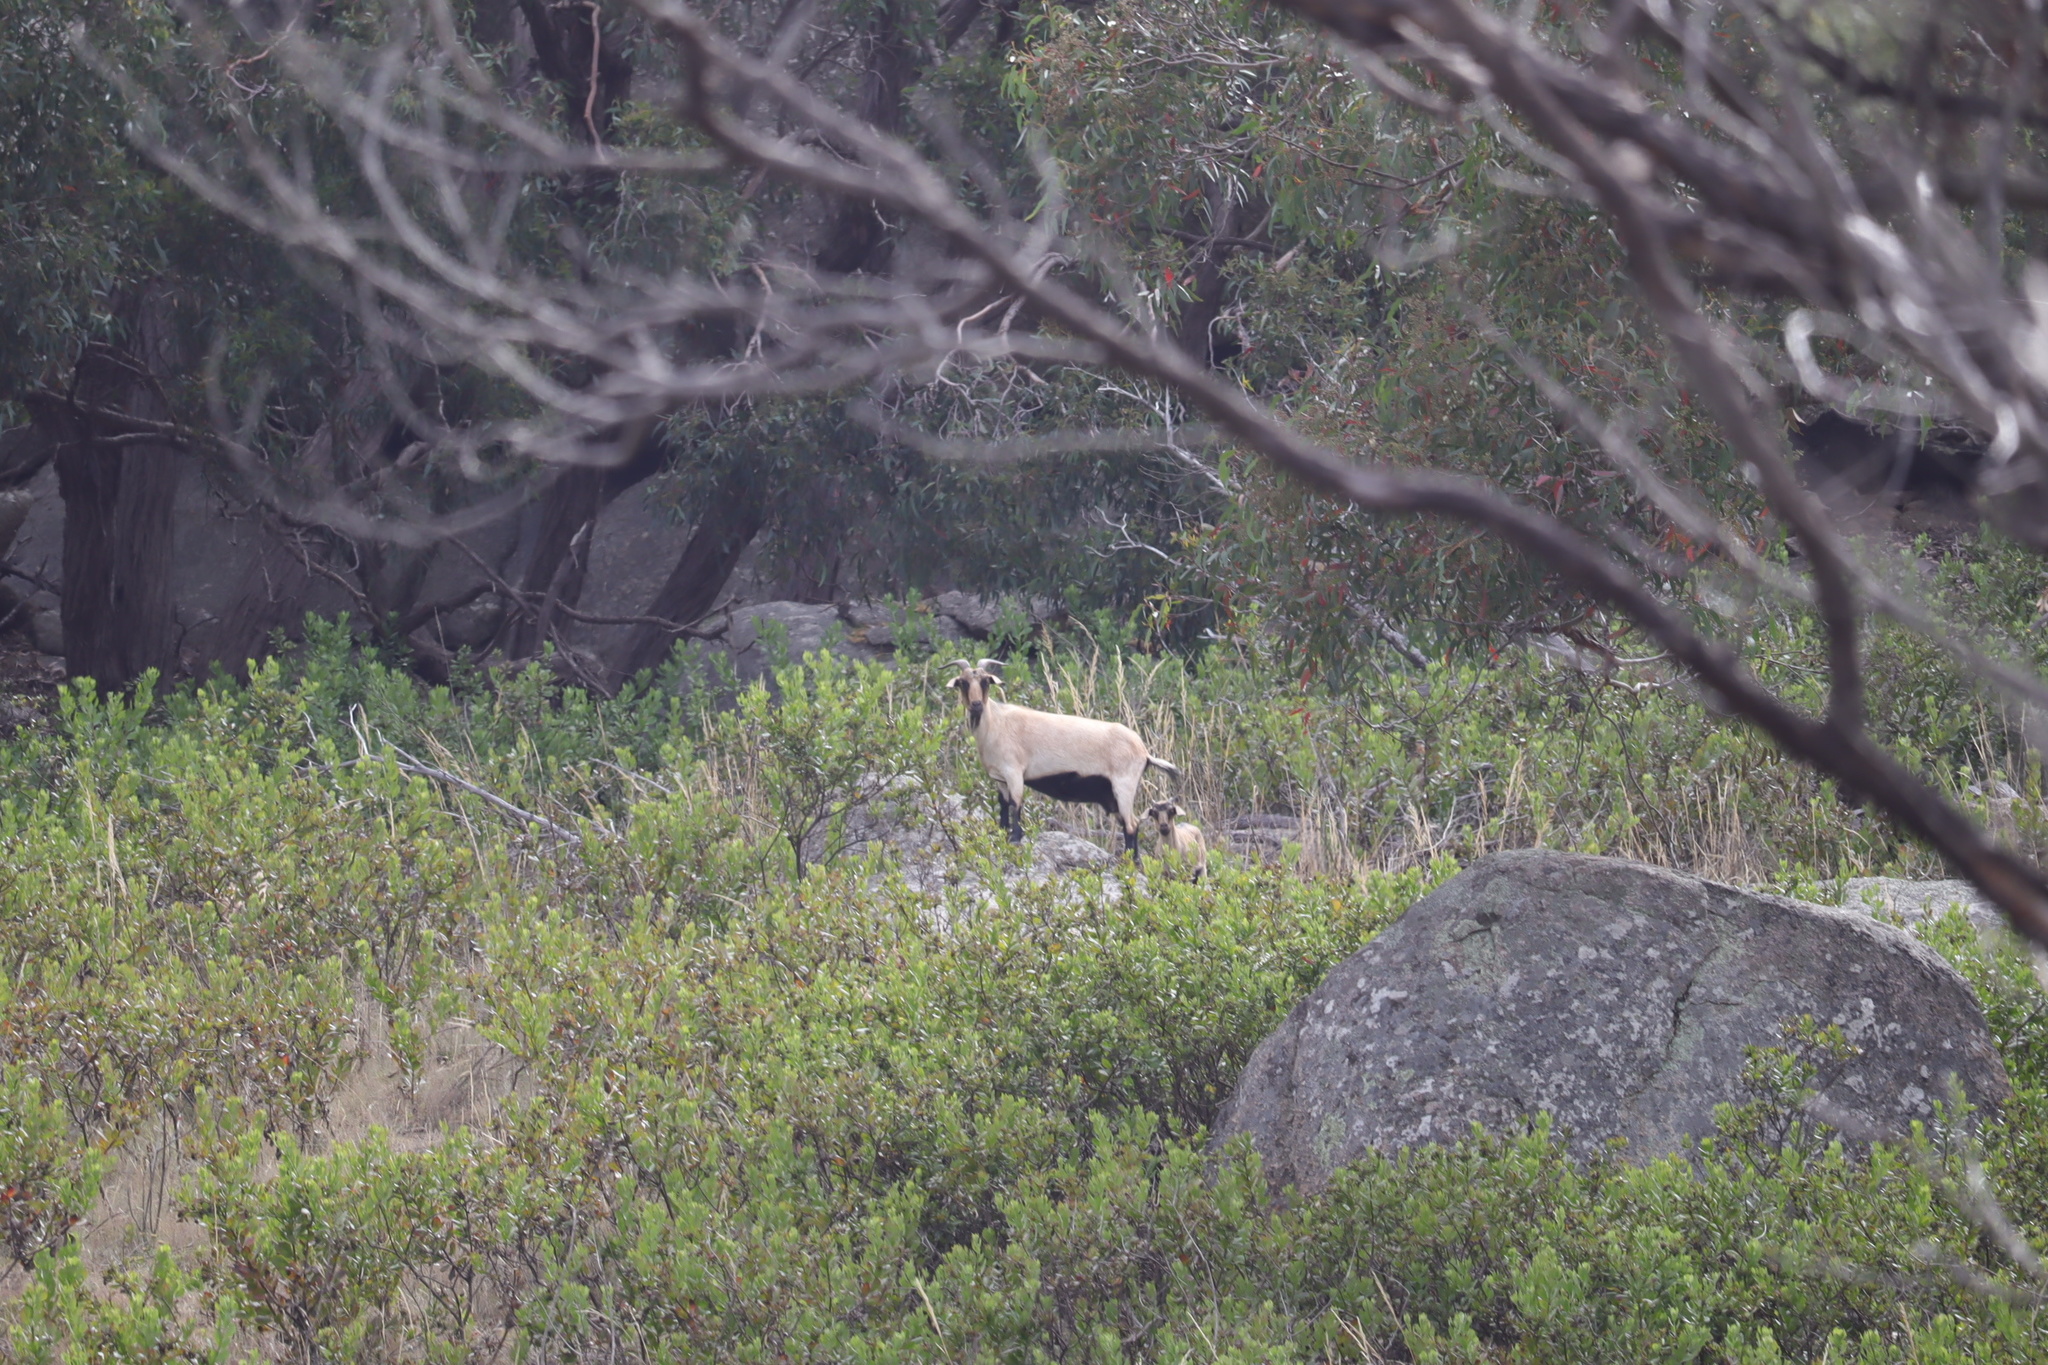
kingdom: Animalia
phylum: Chordata
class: Mammalia
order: Artiodactyla
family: Bovidae
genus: Capra
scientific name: Capra hircus
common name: Domestic goat
